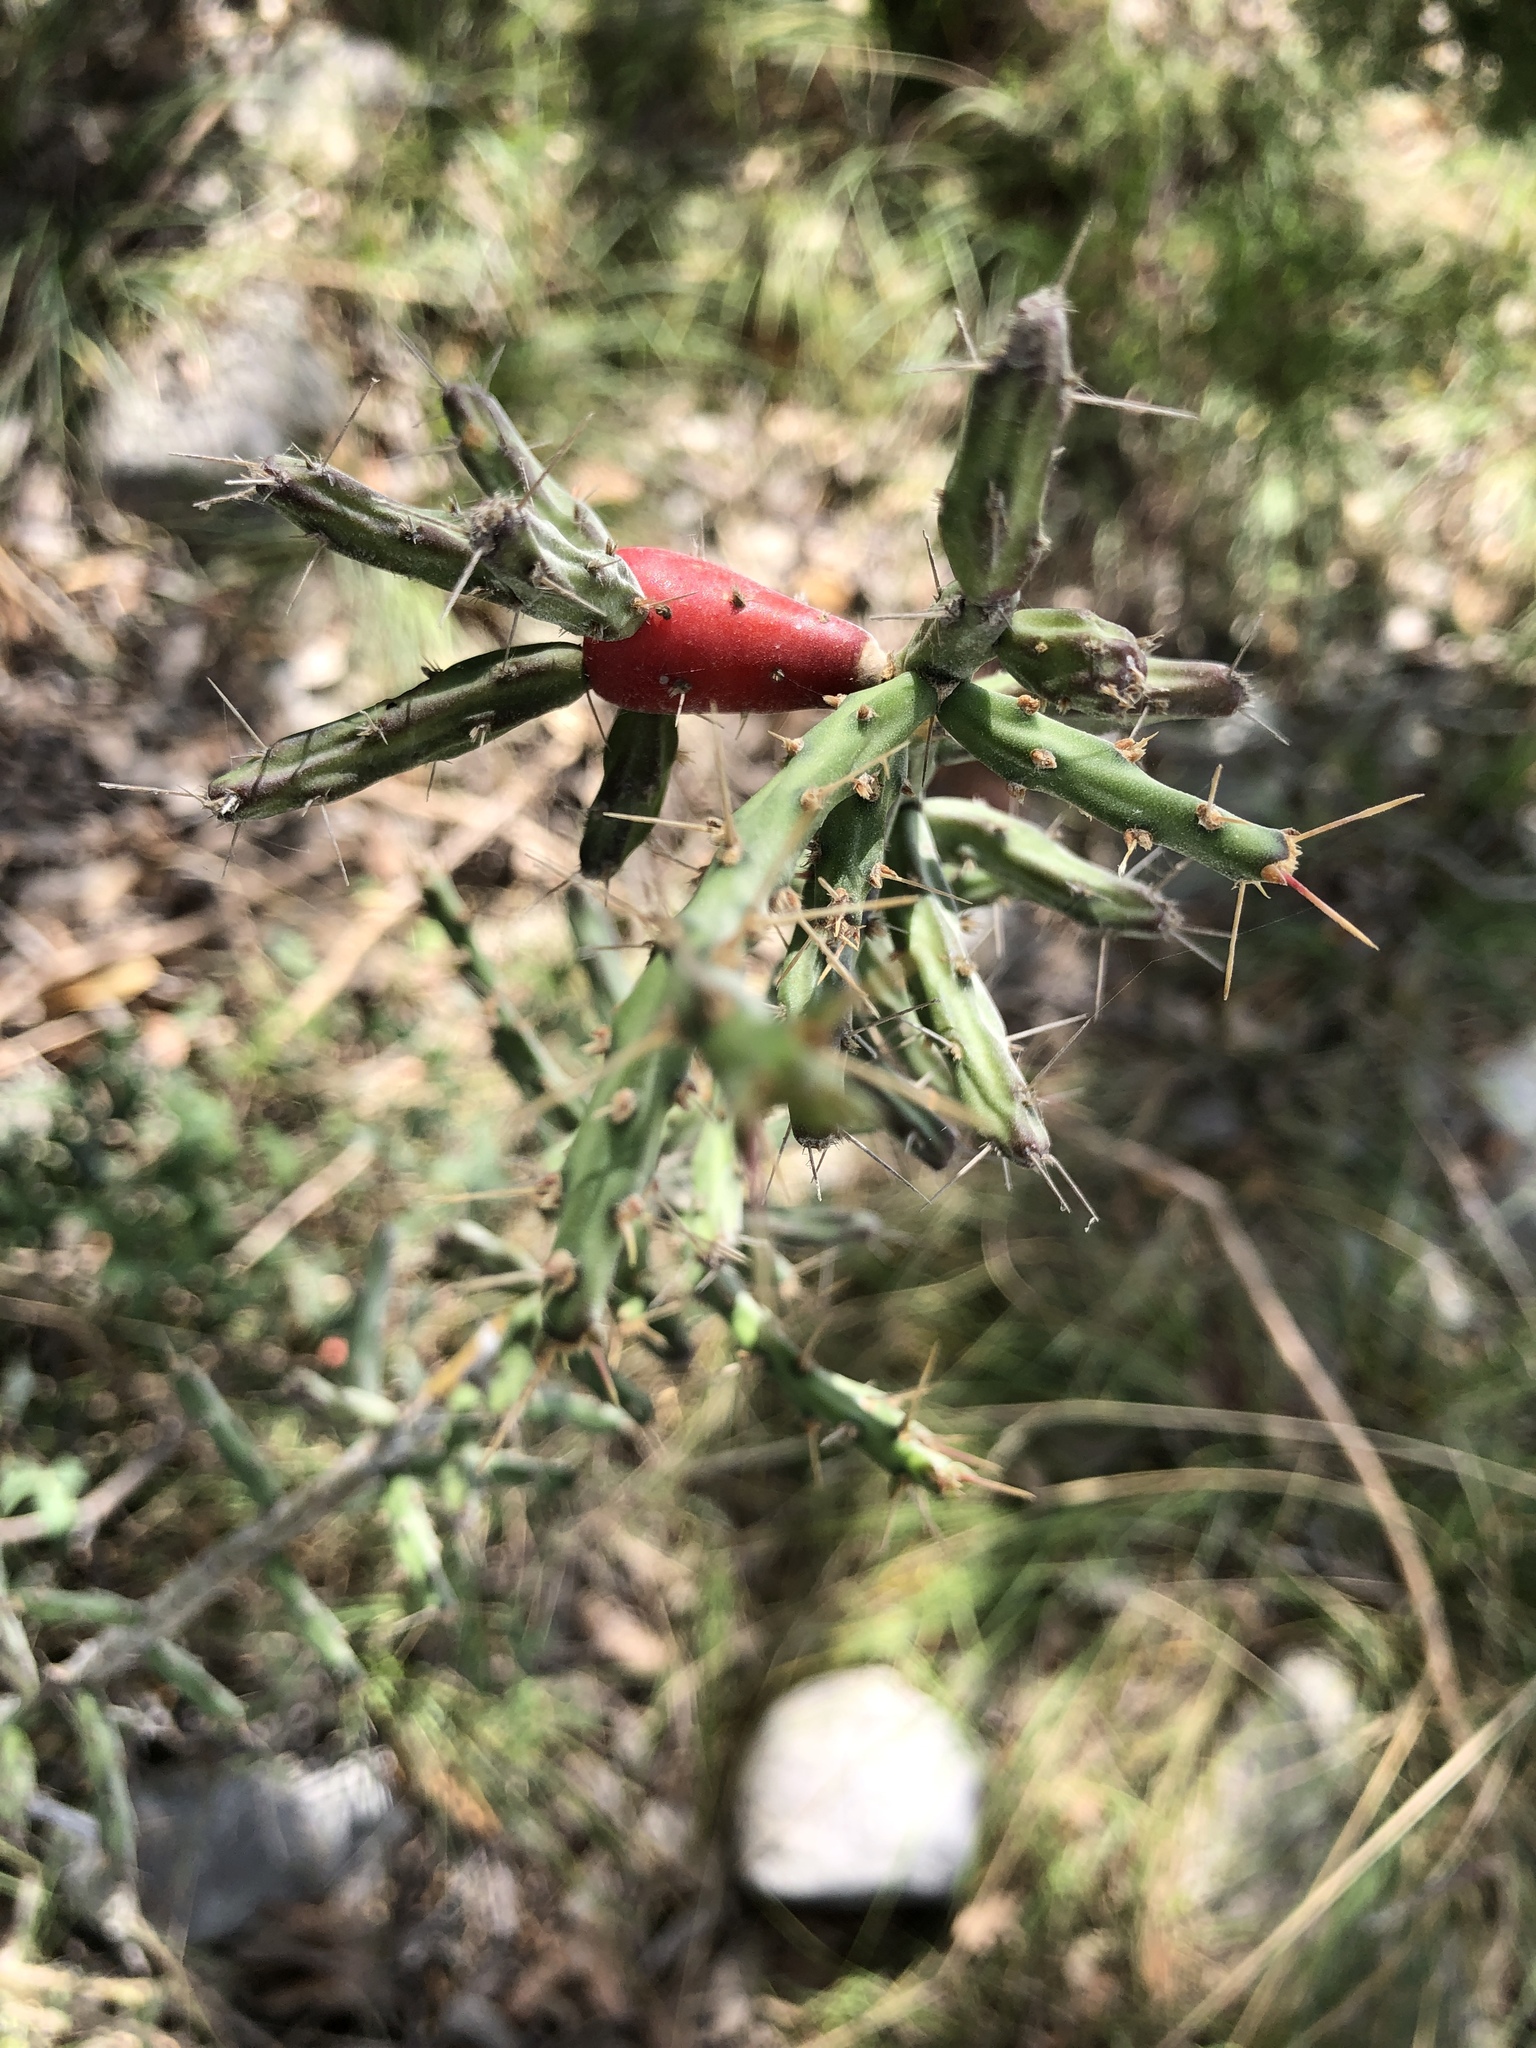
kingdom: Plantae
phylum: Tracheophyta
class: Magnoliopsida
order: Caryophyllales
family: Cactaceae
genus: Cylindropuntia
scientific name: Cylindropuntia leptocaulis
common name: Christmas cactus
